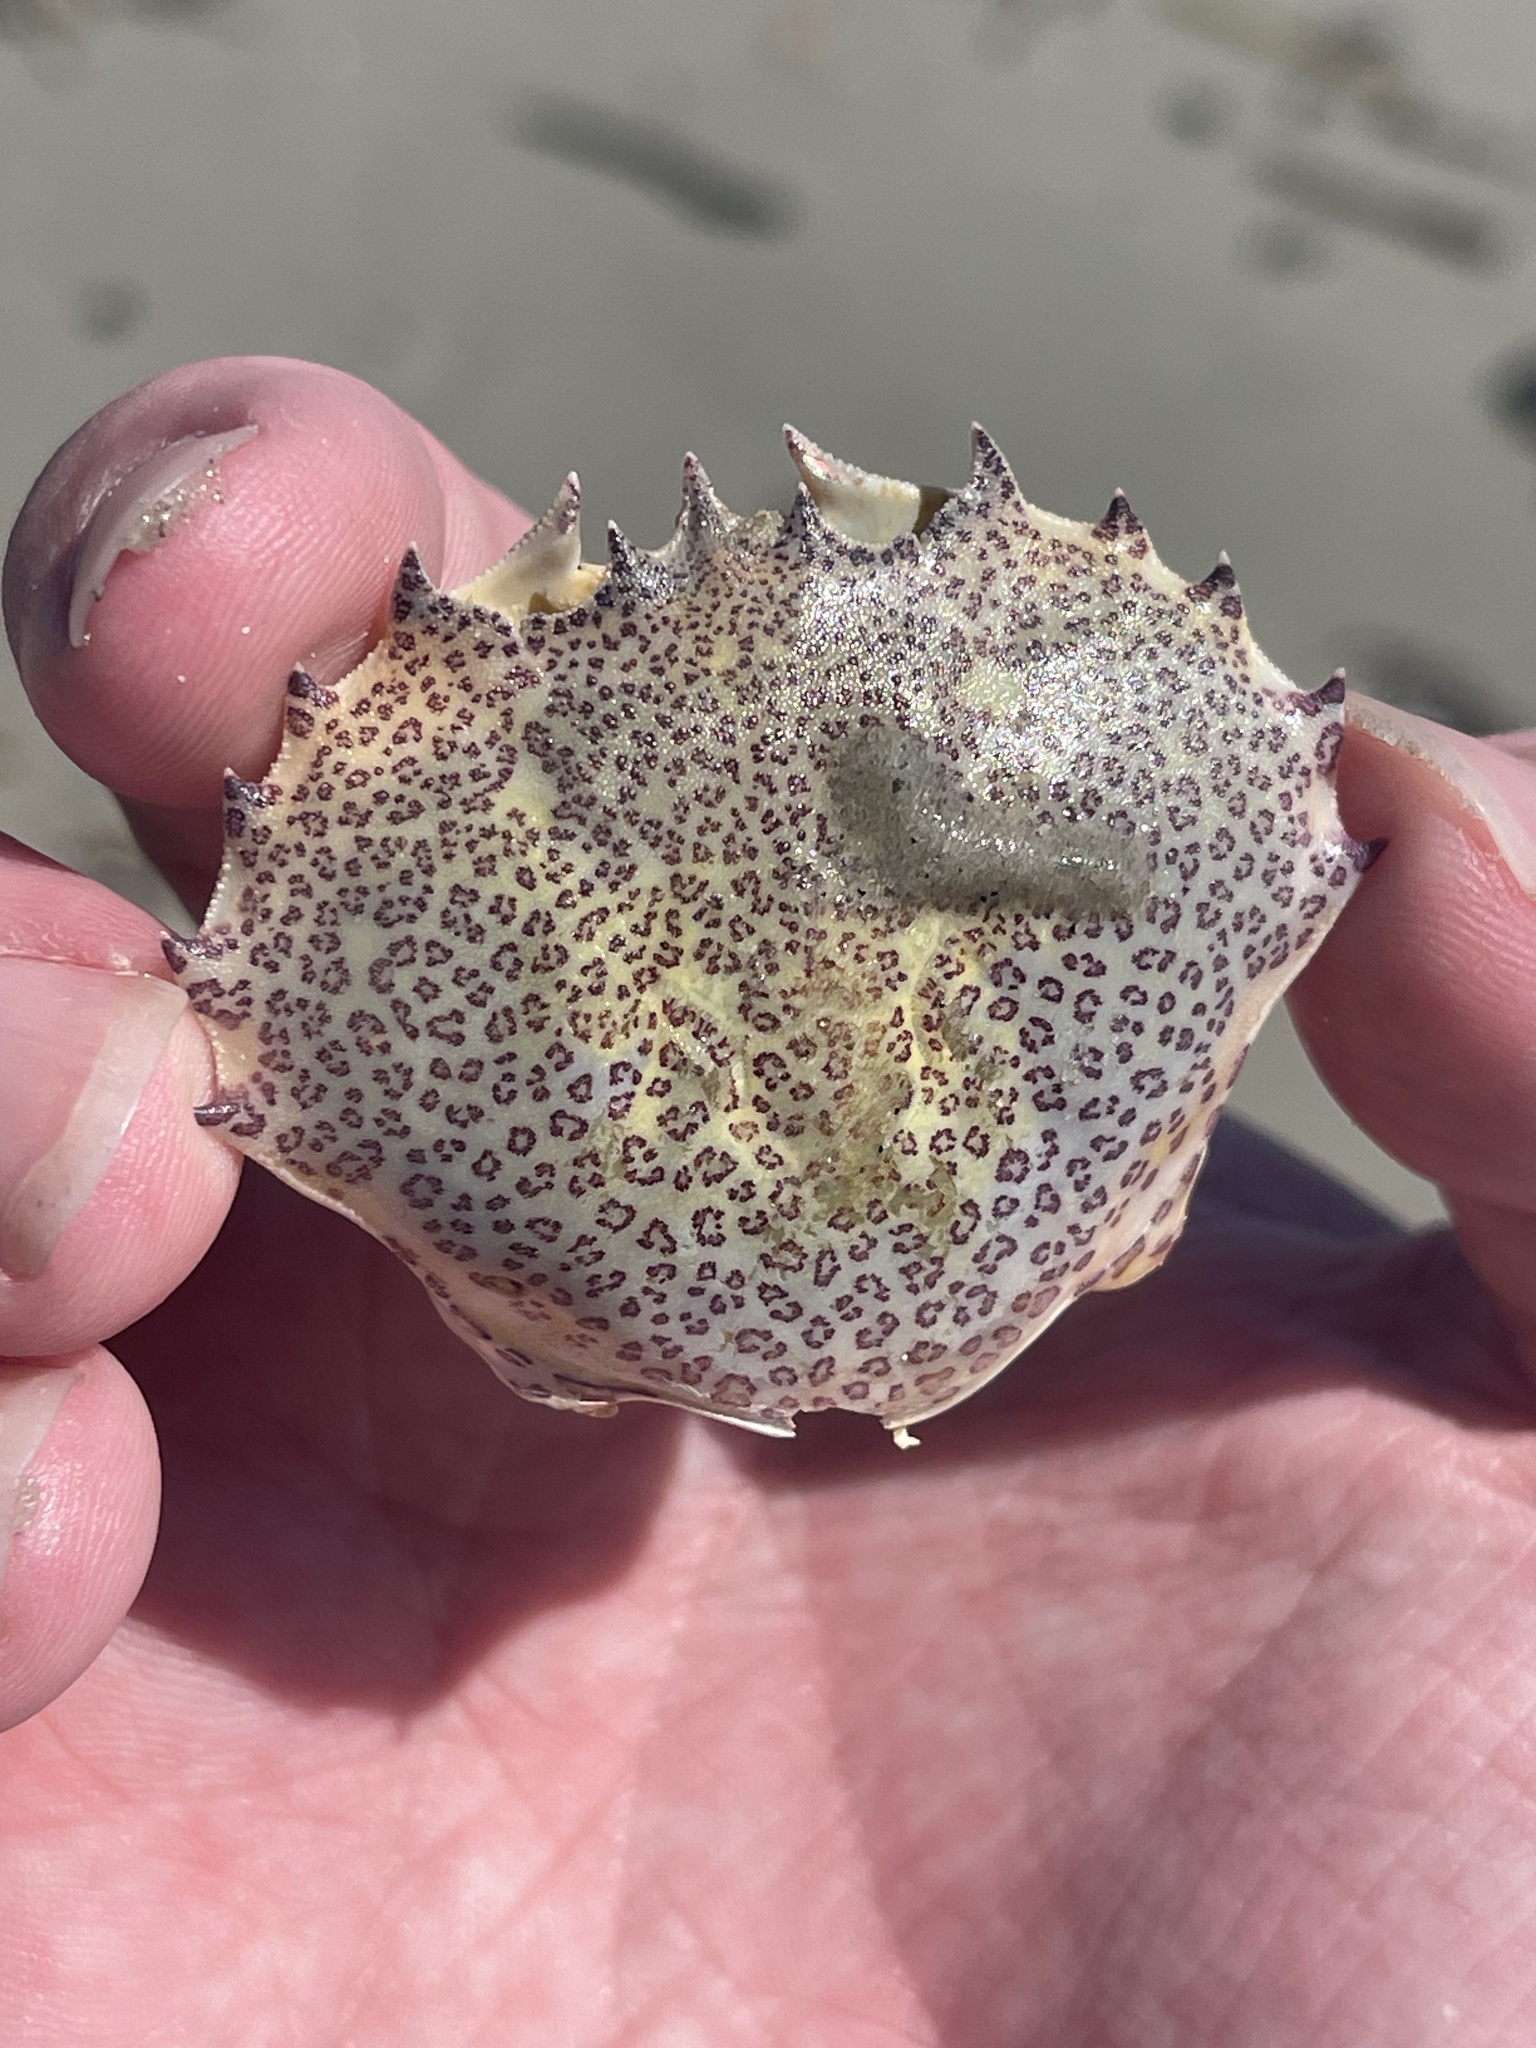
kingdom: Animalia
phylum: Arthropoda
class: Malacostraca
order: Decapoda
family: Ovalipidae
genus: Ovalipes
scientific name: Ovalipes ocellatus
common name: Lady crab
